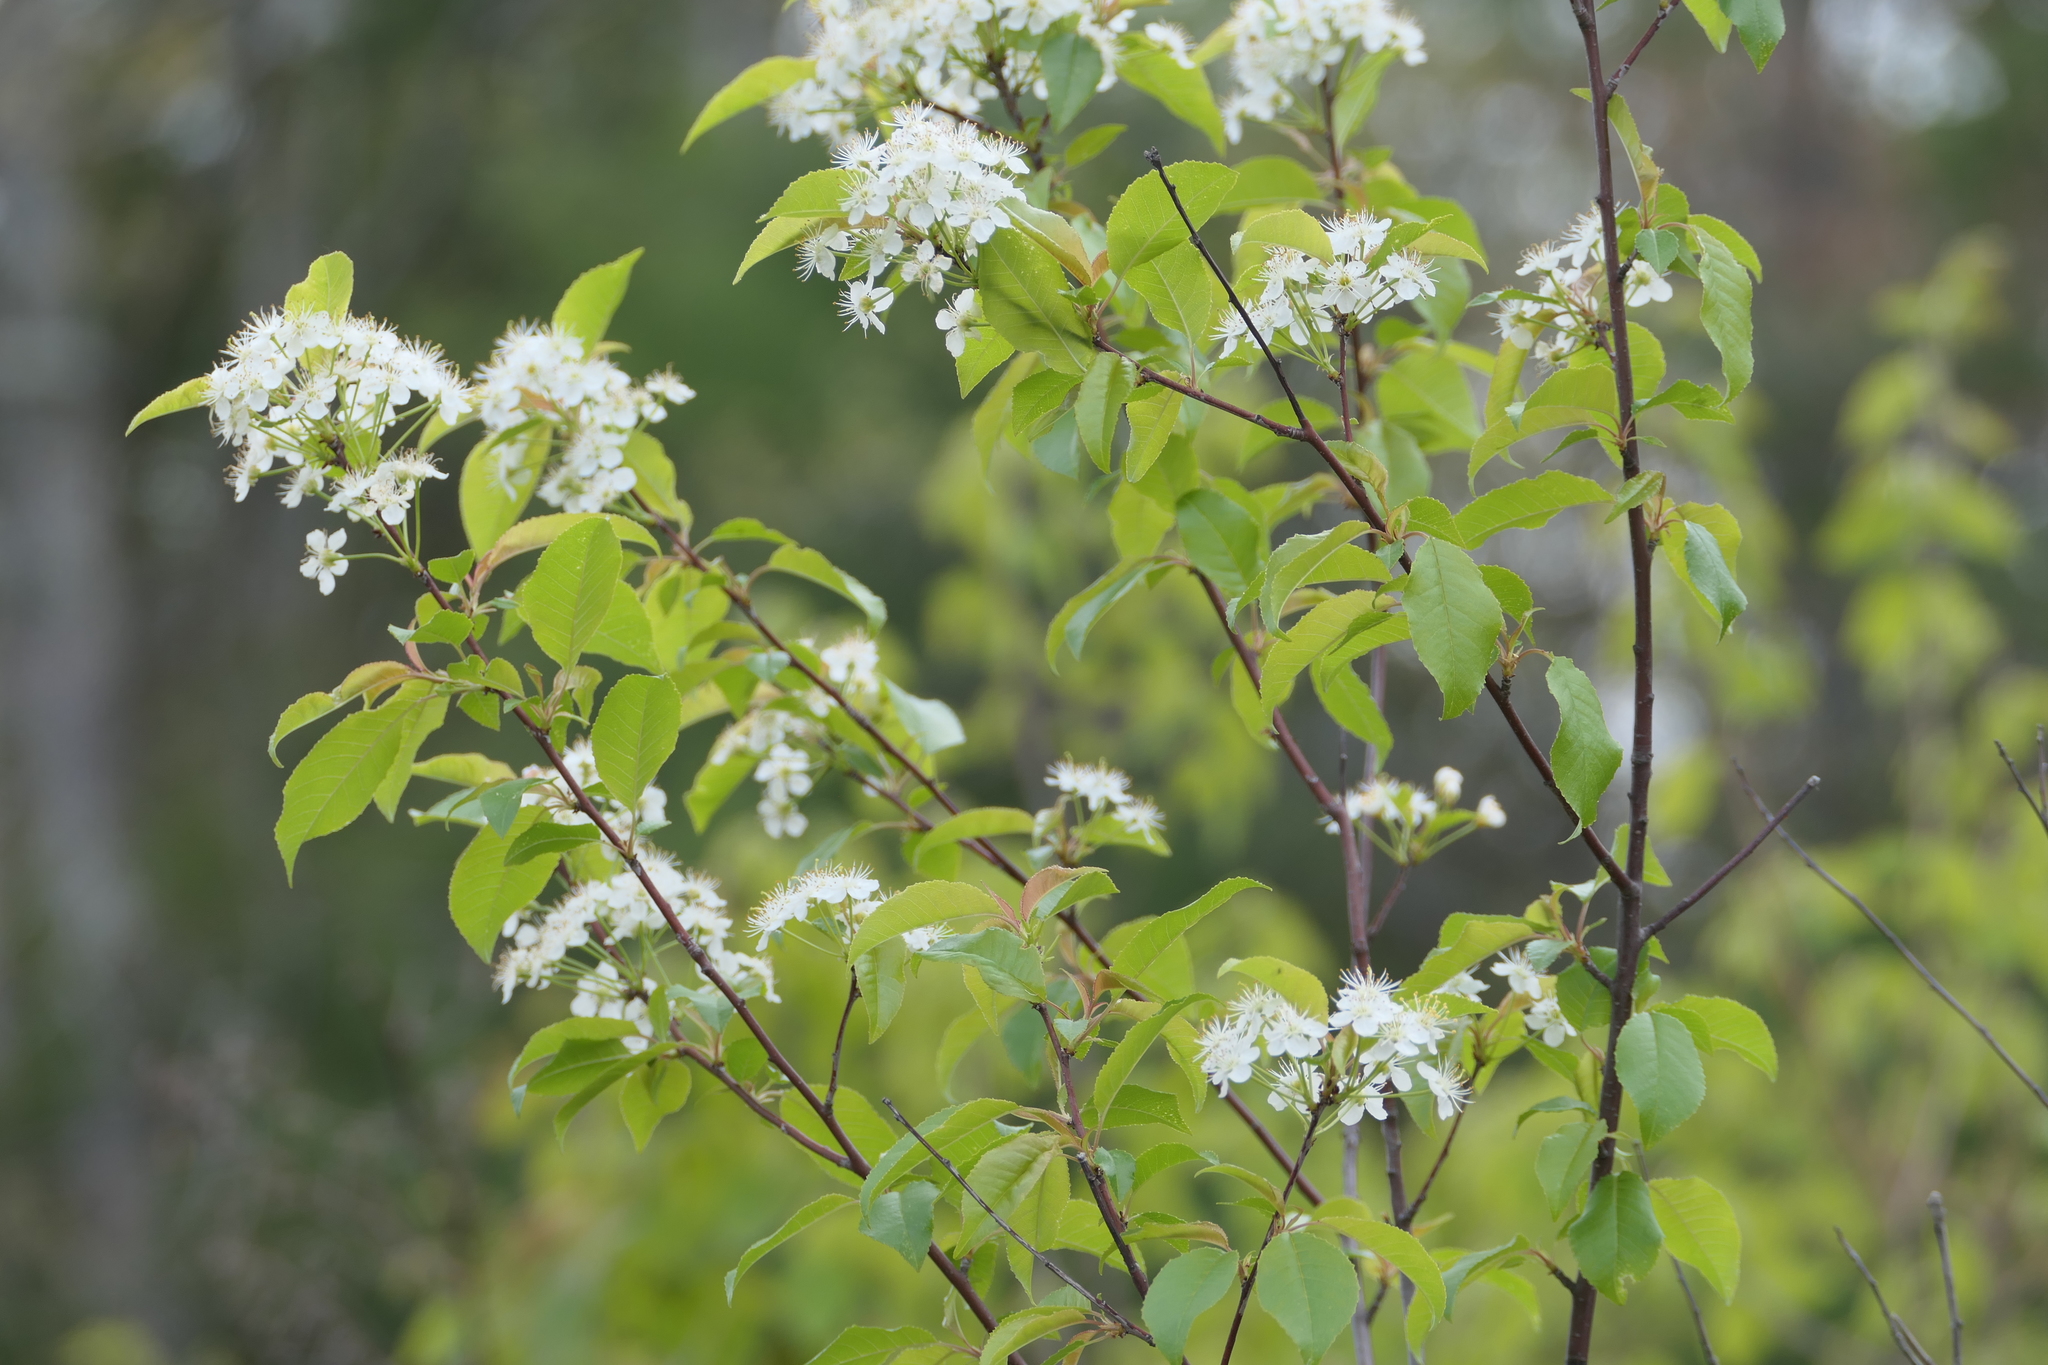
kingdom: Plantae
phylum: Tracheophyta
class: Magnoliopsida
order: Rosales
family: Rosaceae
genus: Prunus
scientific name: Prunus pensylvanica
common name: Pin cherry
